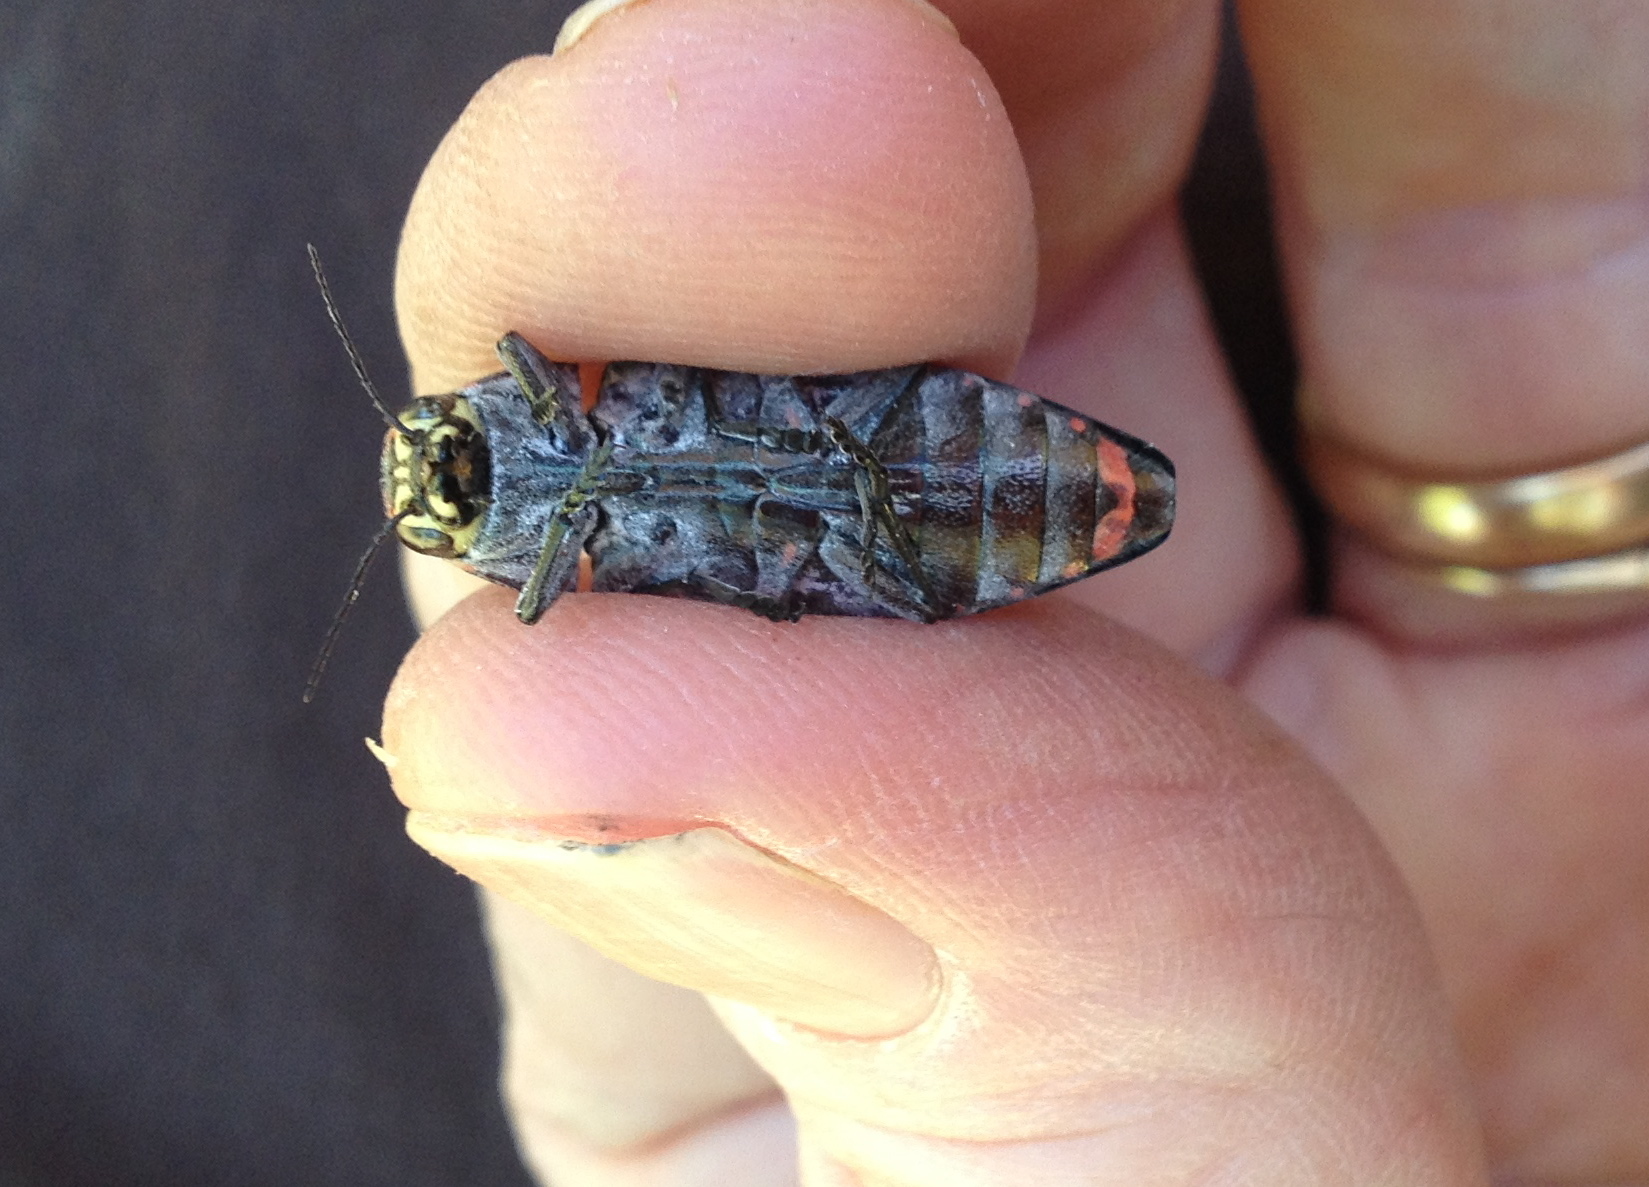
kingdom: Animalia
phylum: Arthropoda
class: Insecta
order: Coleoptera
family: Buprestidae
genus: Buprestis
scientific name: Buprestis lyrata
